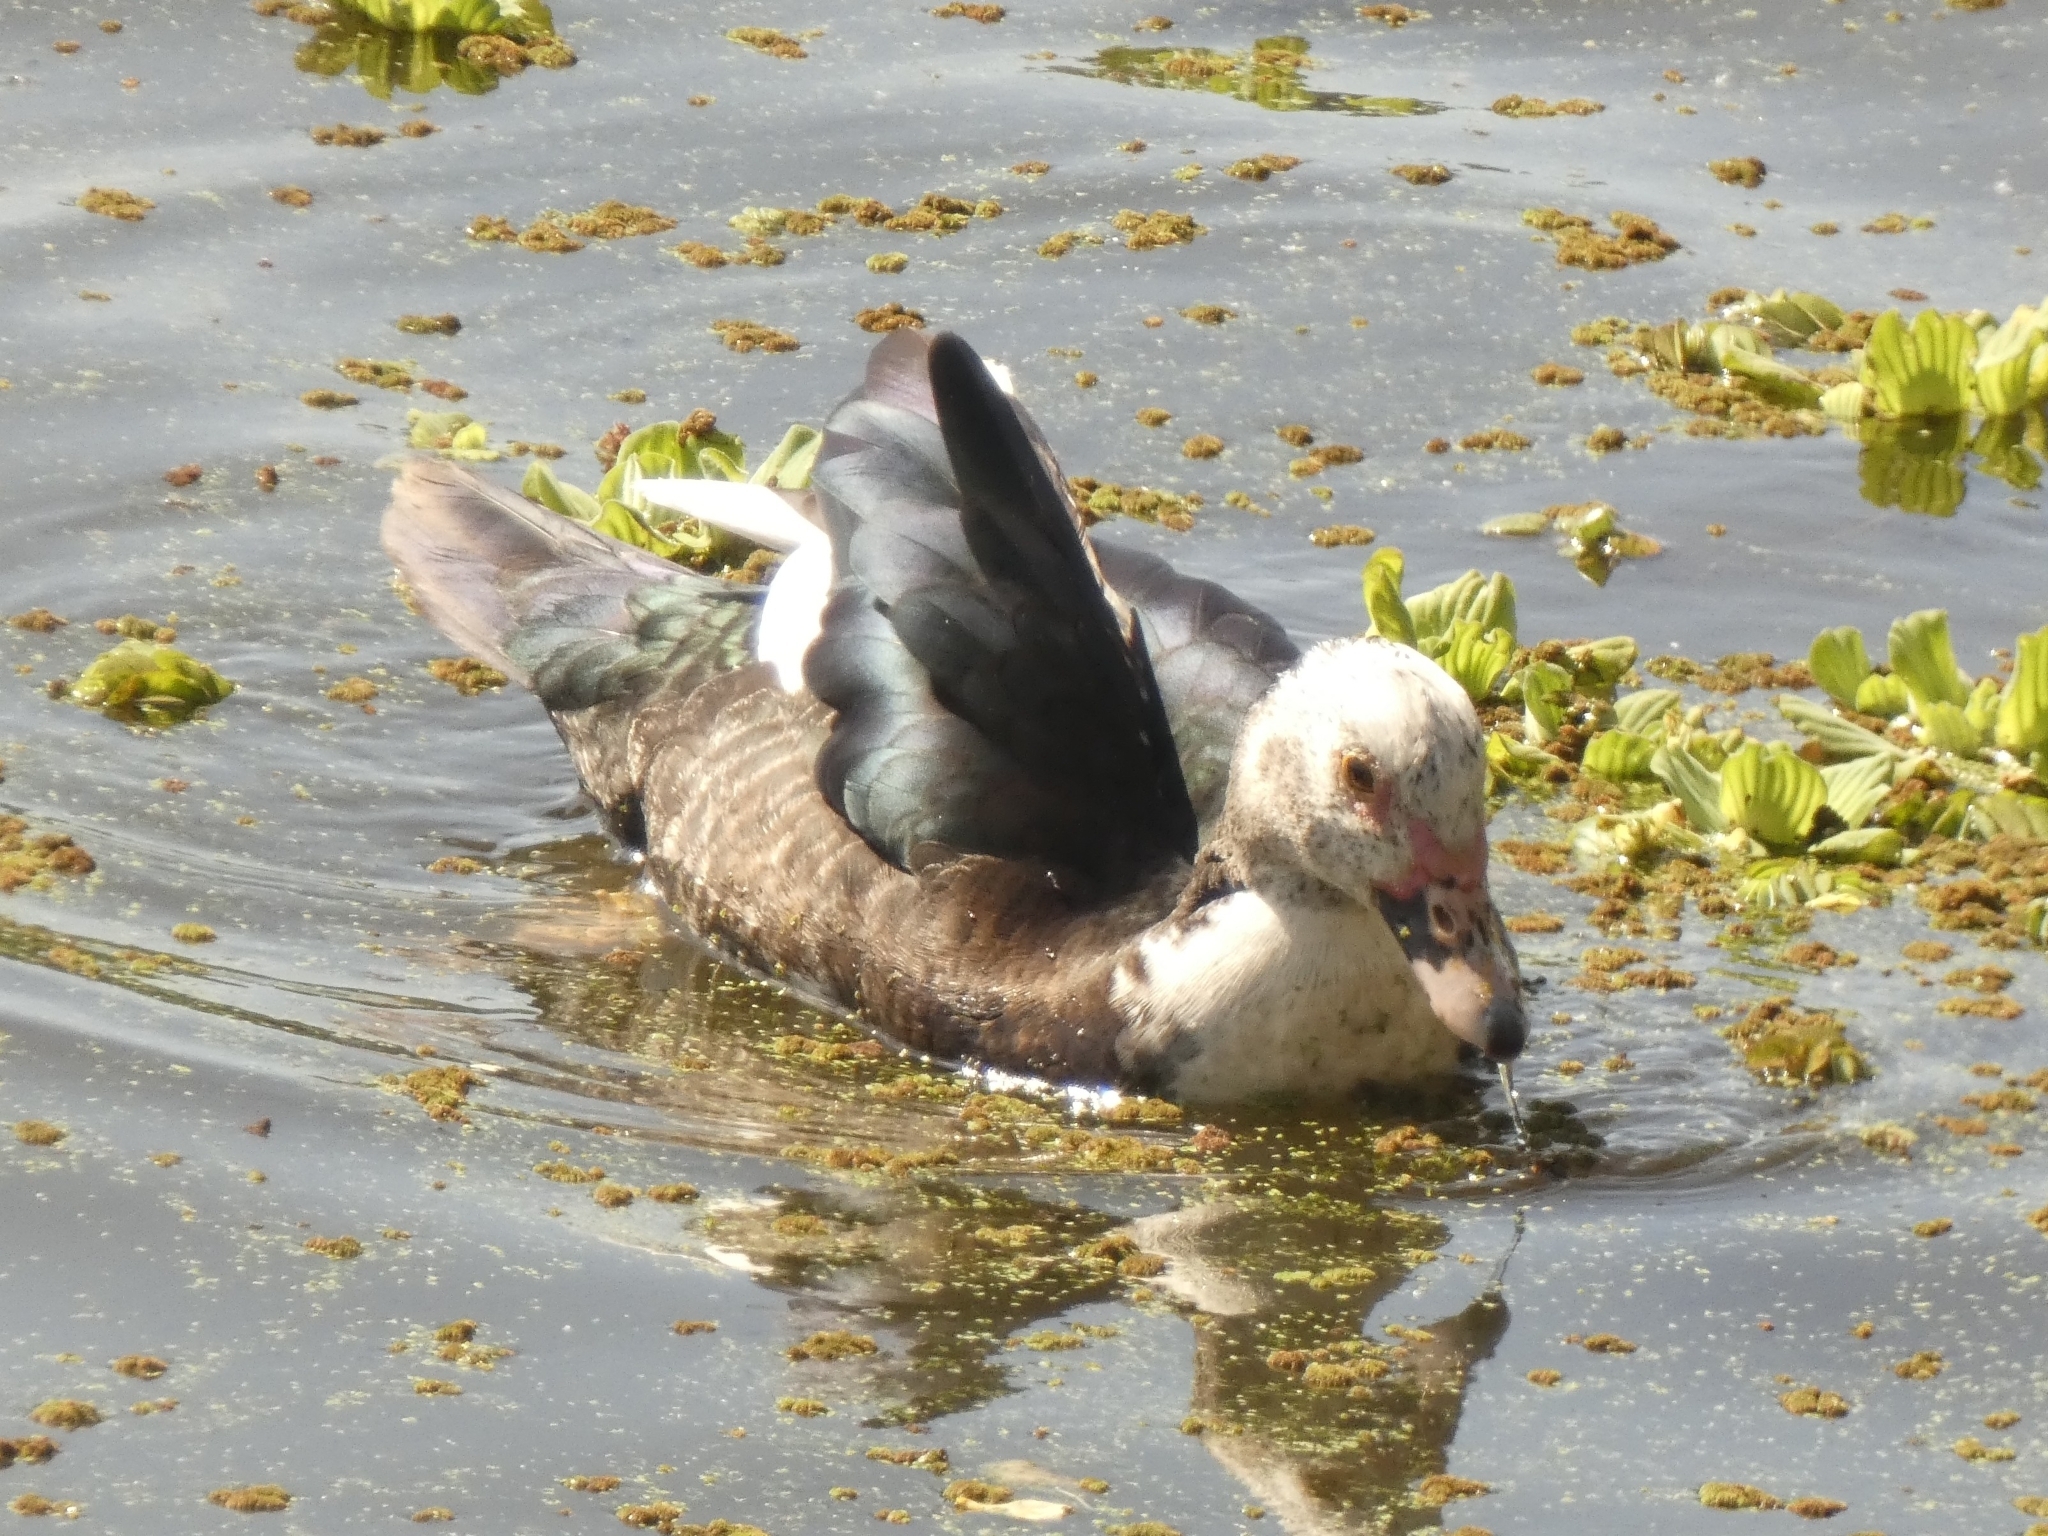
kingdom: Animalia
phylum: Chordata
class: Aves
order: Anseriformes
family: Anatidae
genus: Cairina
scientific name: Cairina moschata
